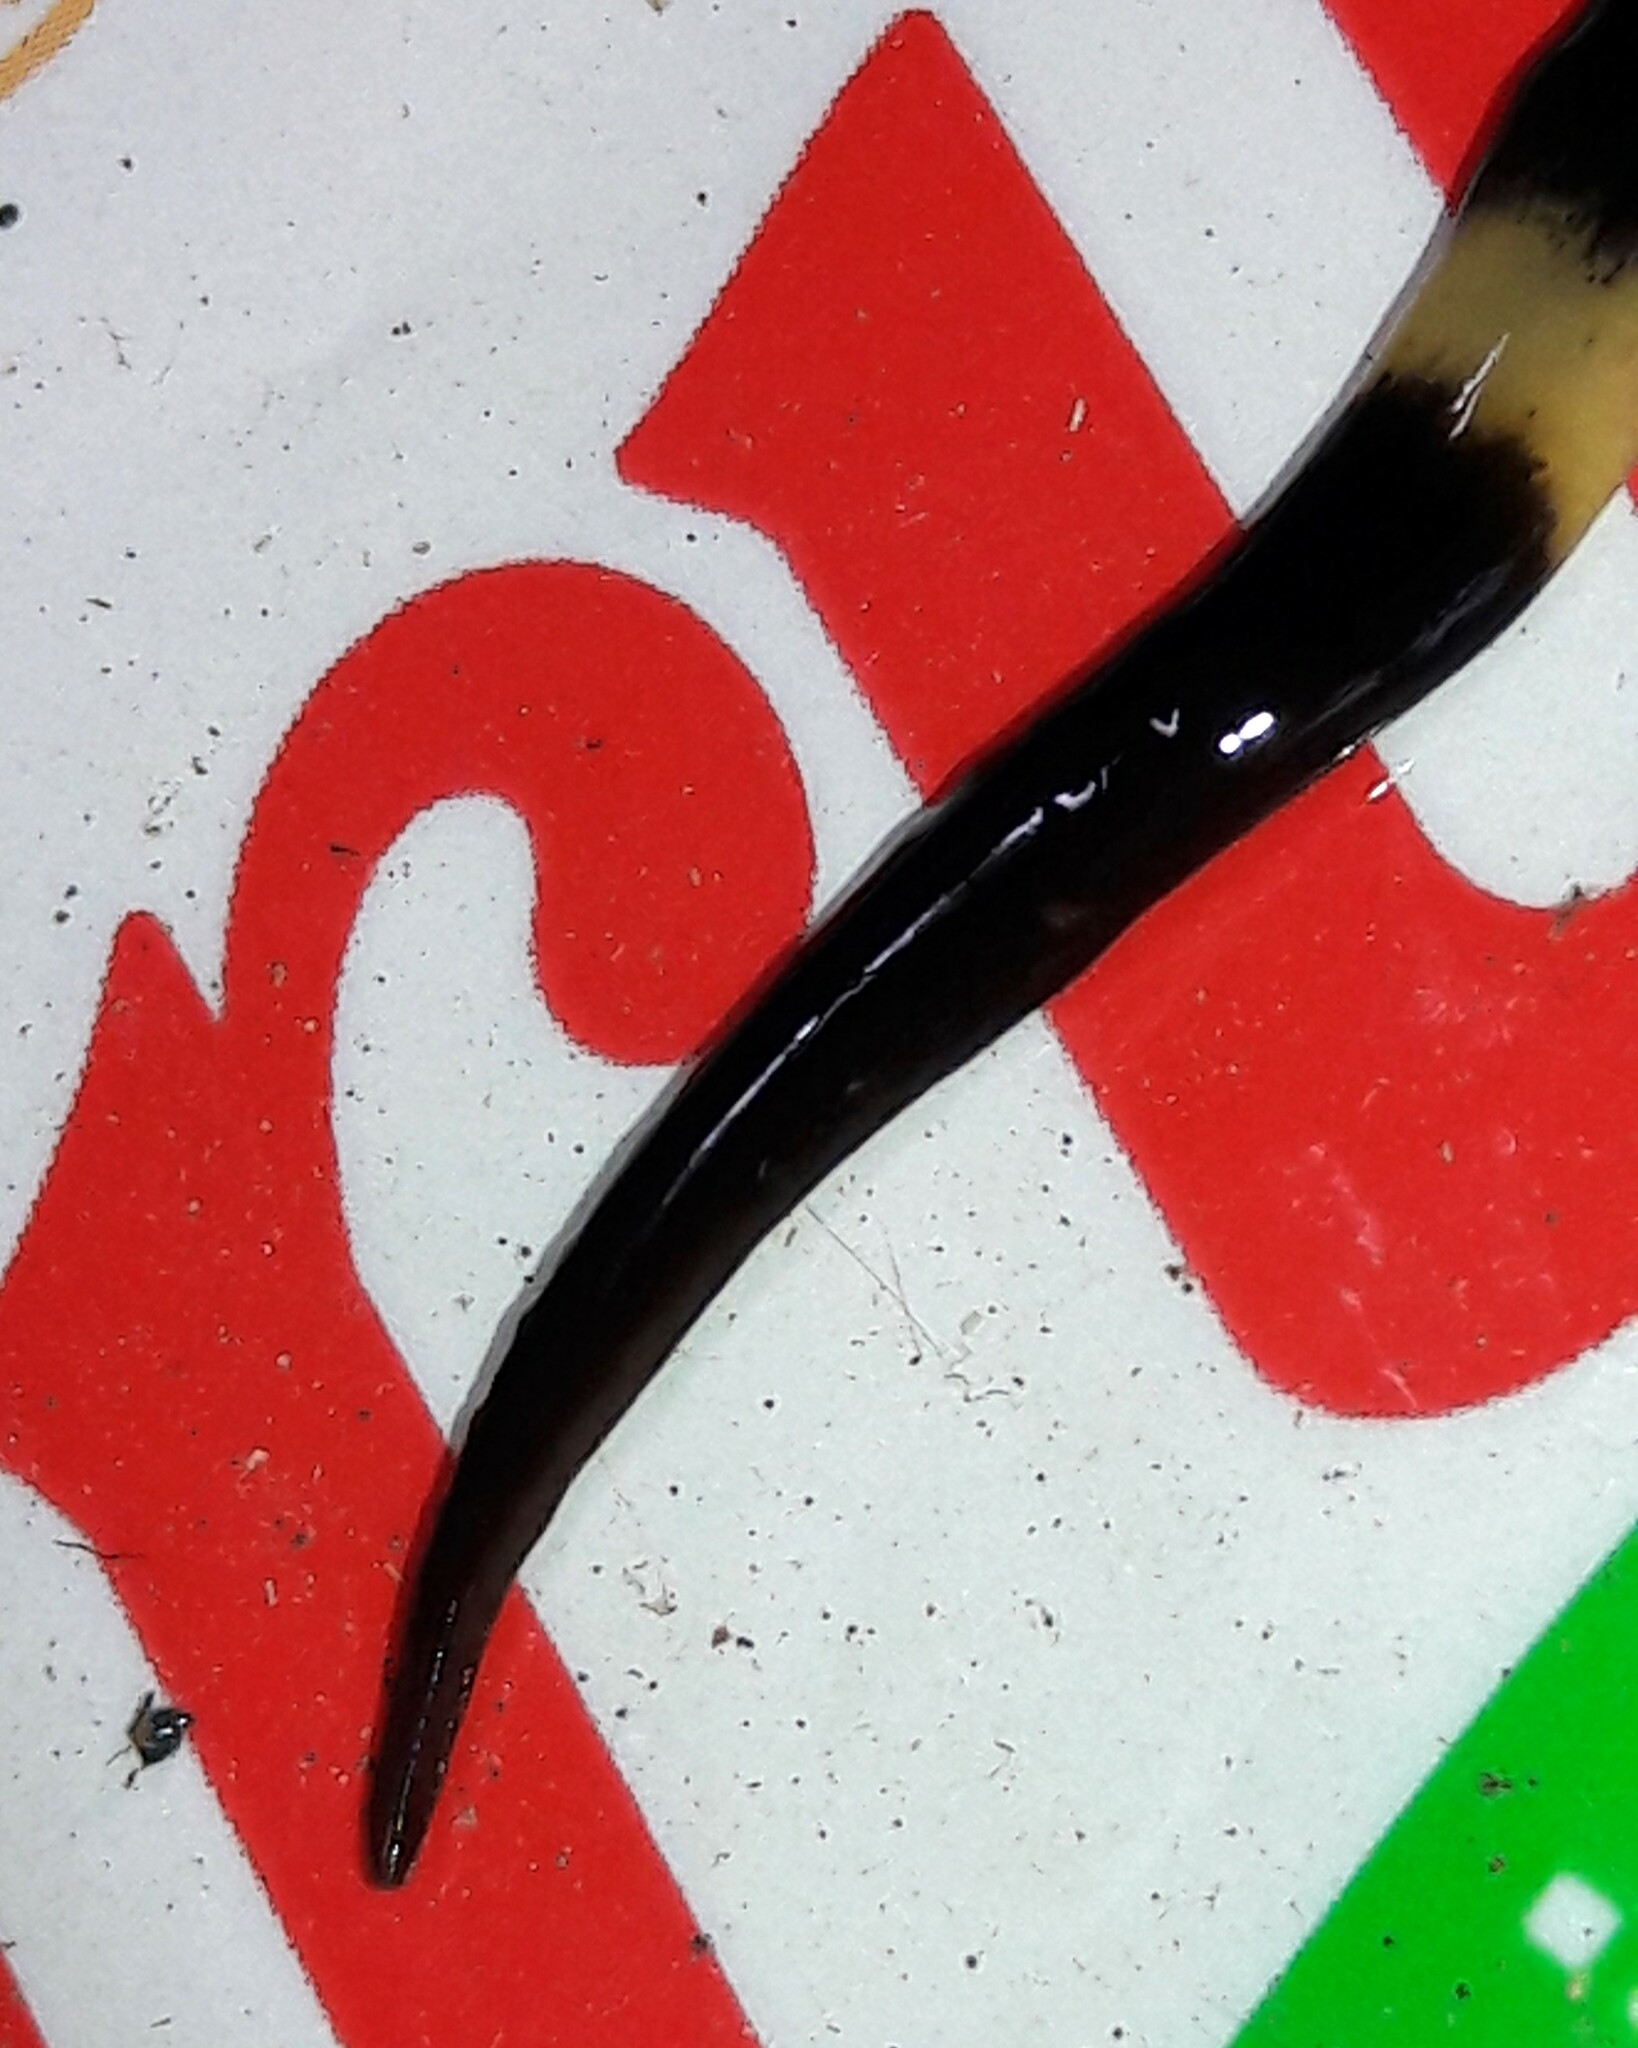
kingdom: Animalia
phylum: Platyhelminthes
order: Tricladida
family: Geoplanidae
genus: Paraba
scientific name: Paraba pankaru
